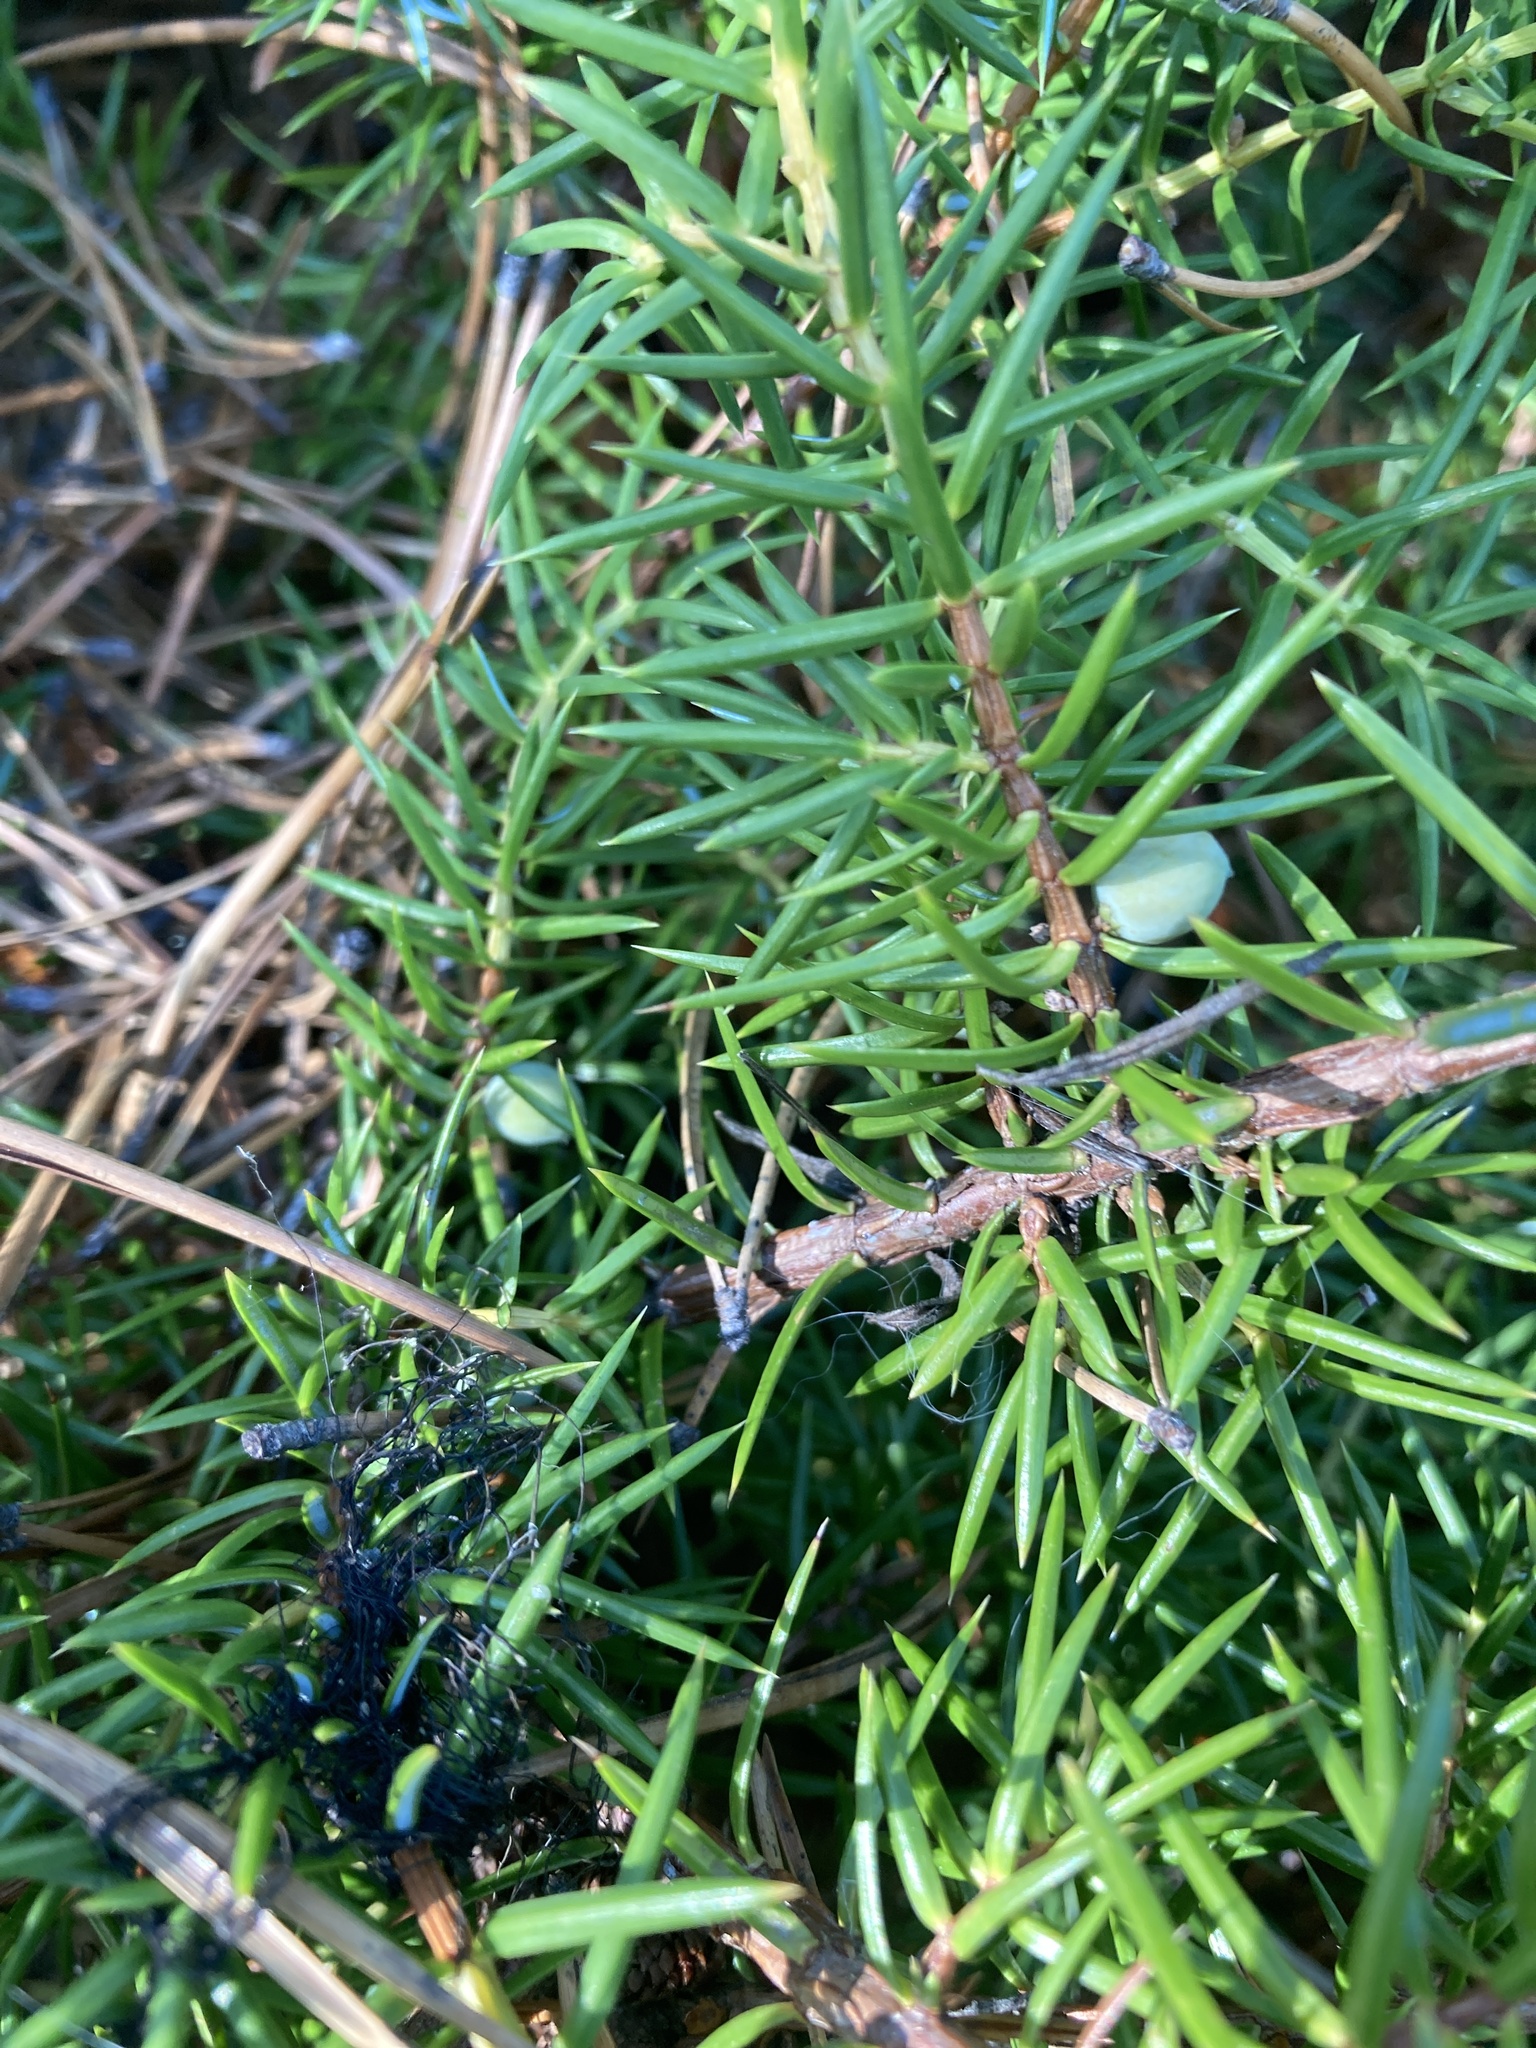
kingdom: Plantae
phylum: Tracheophyta
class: Pinopsida
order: Pinales
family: Cupressaceae
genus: Juniperus
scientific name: Juniperus communis
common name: Common juniper
